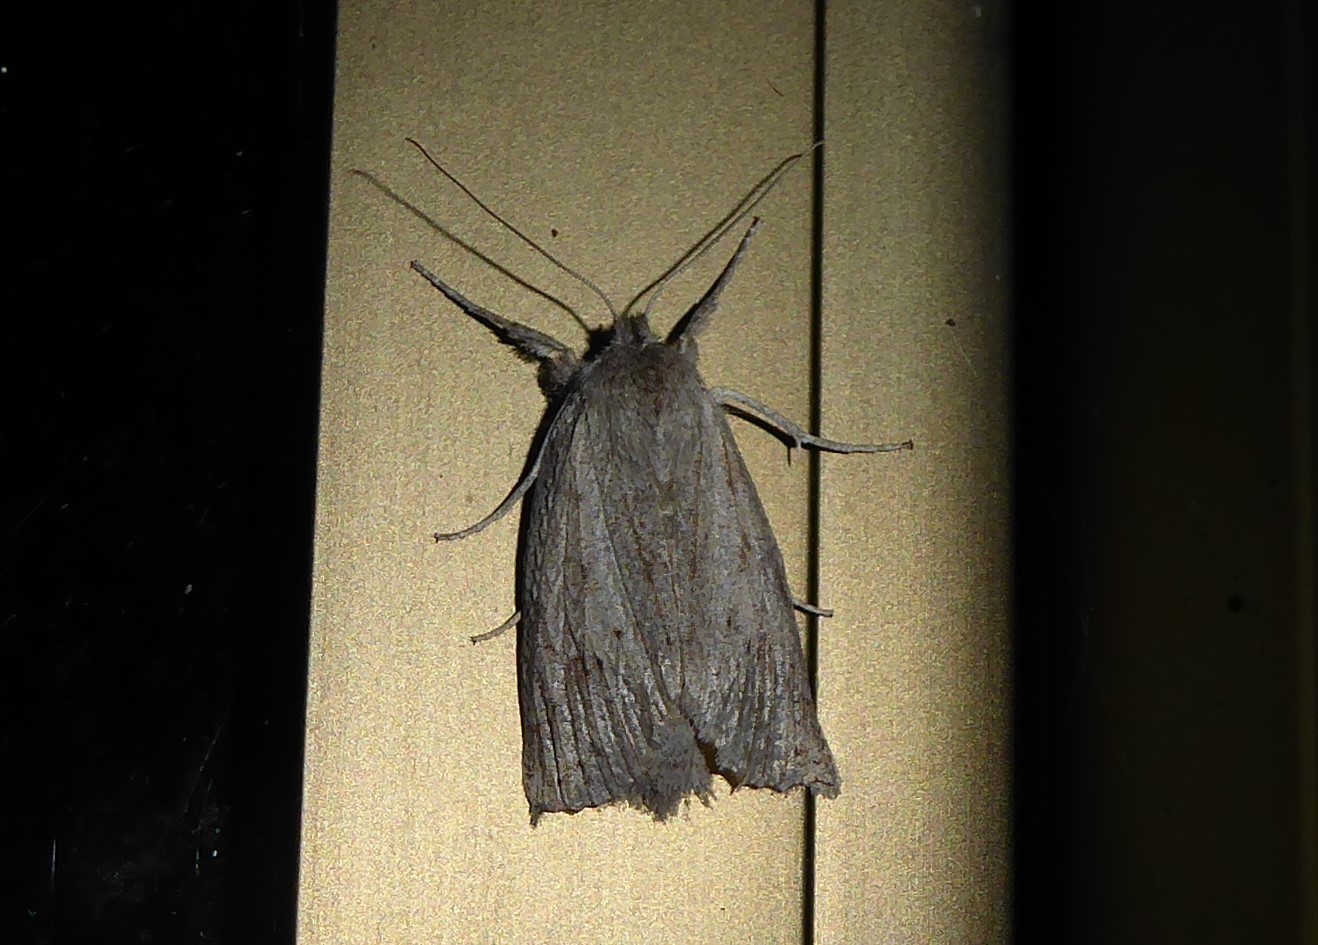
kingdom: Animalia
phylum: Arthropoda
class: Insecta
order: Lepidoptera
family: Geometridae
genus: Declana
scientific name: Declana leptomera
